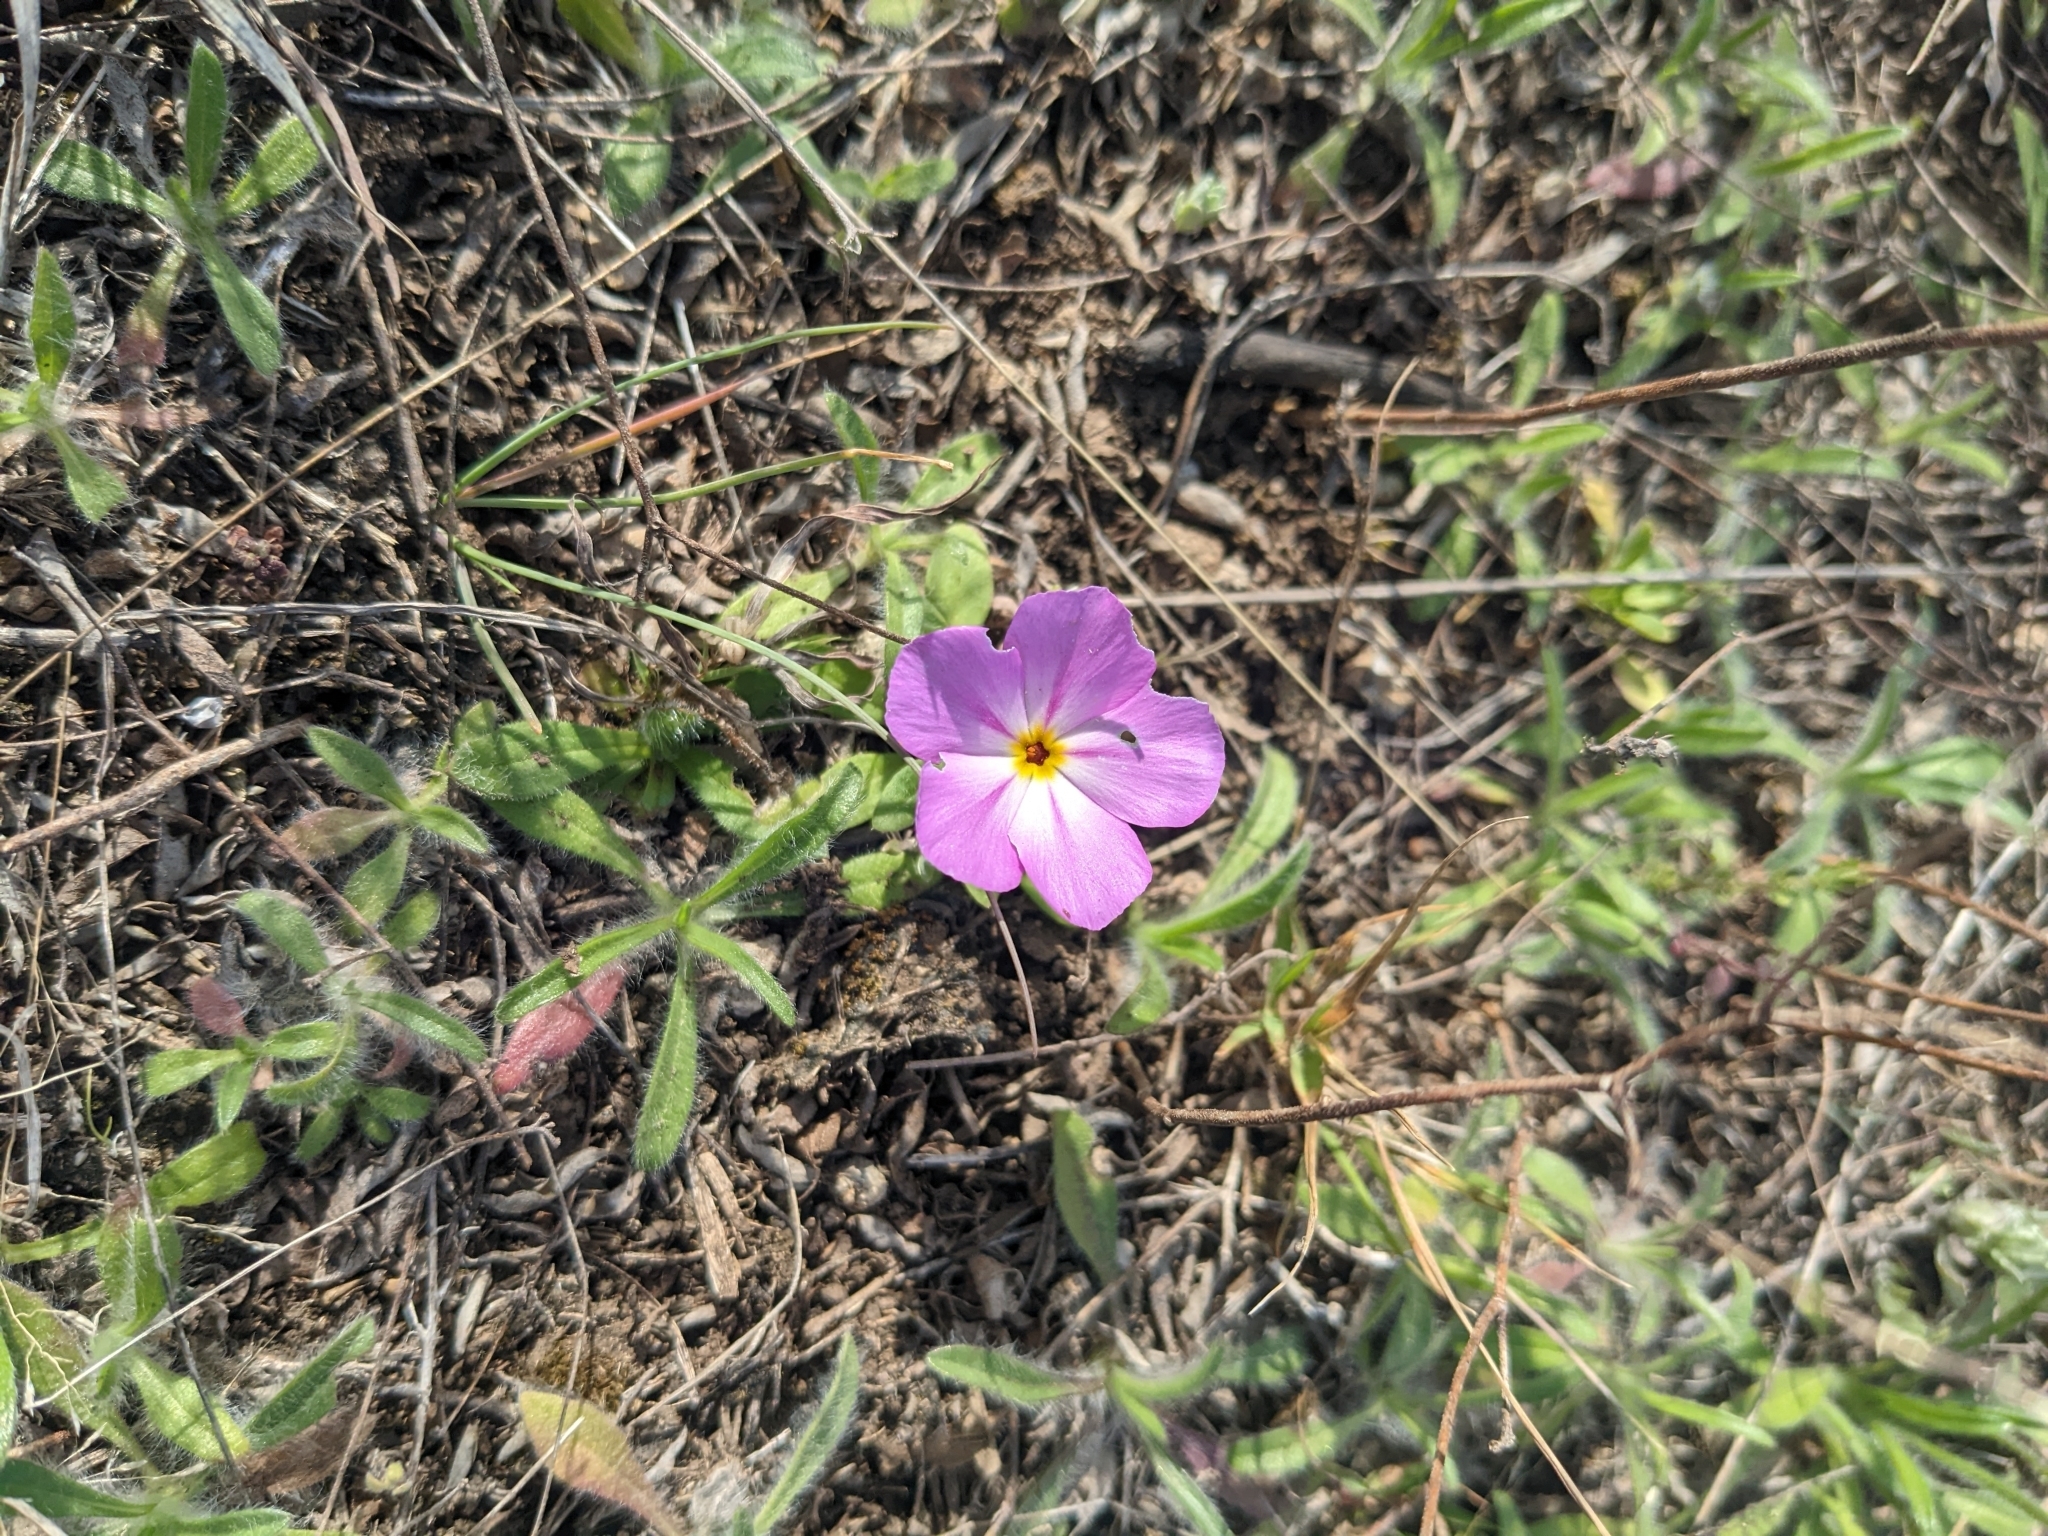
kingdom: Plantae
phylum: Tracheophyta
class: Magnoliopsida
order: Ericales
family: Polemoniaceae
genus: Phlox
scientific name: Phlox roemeriana
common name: Roemer's phlox
